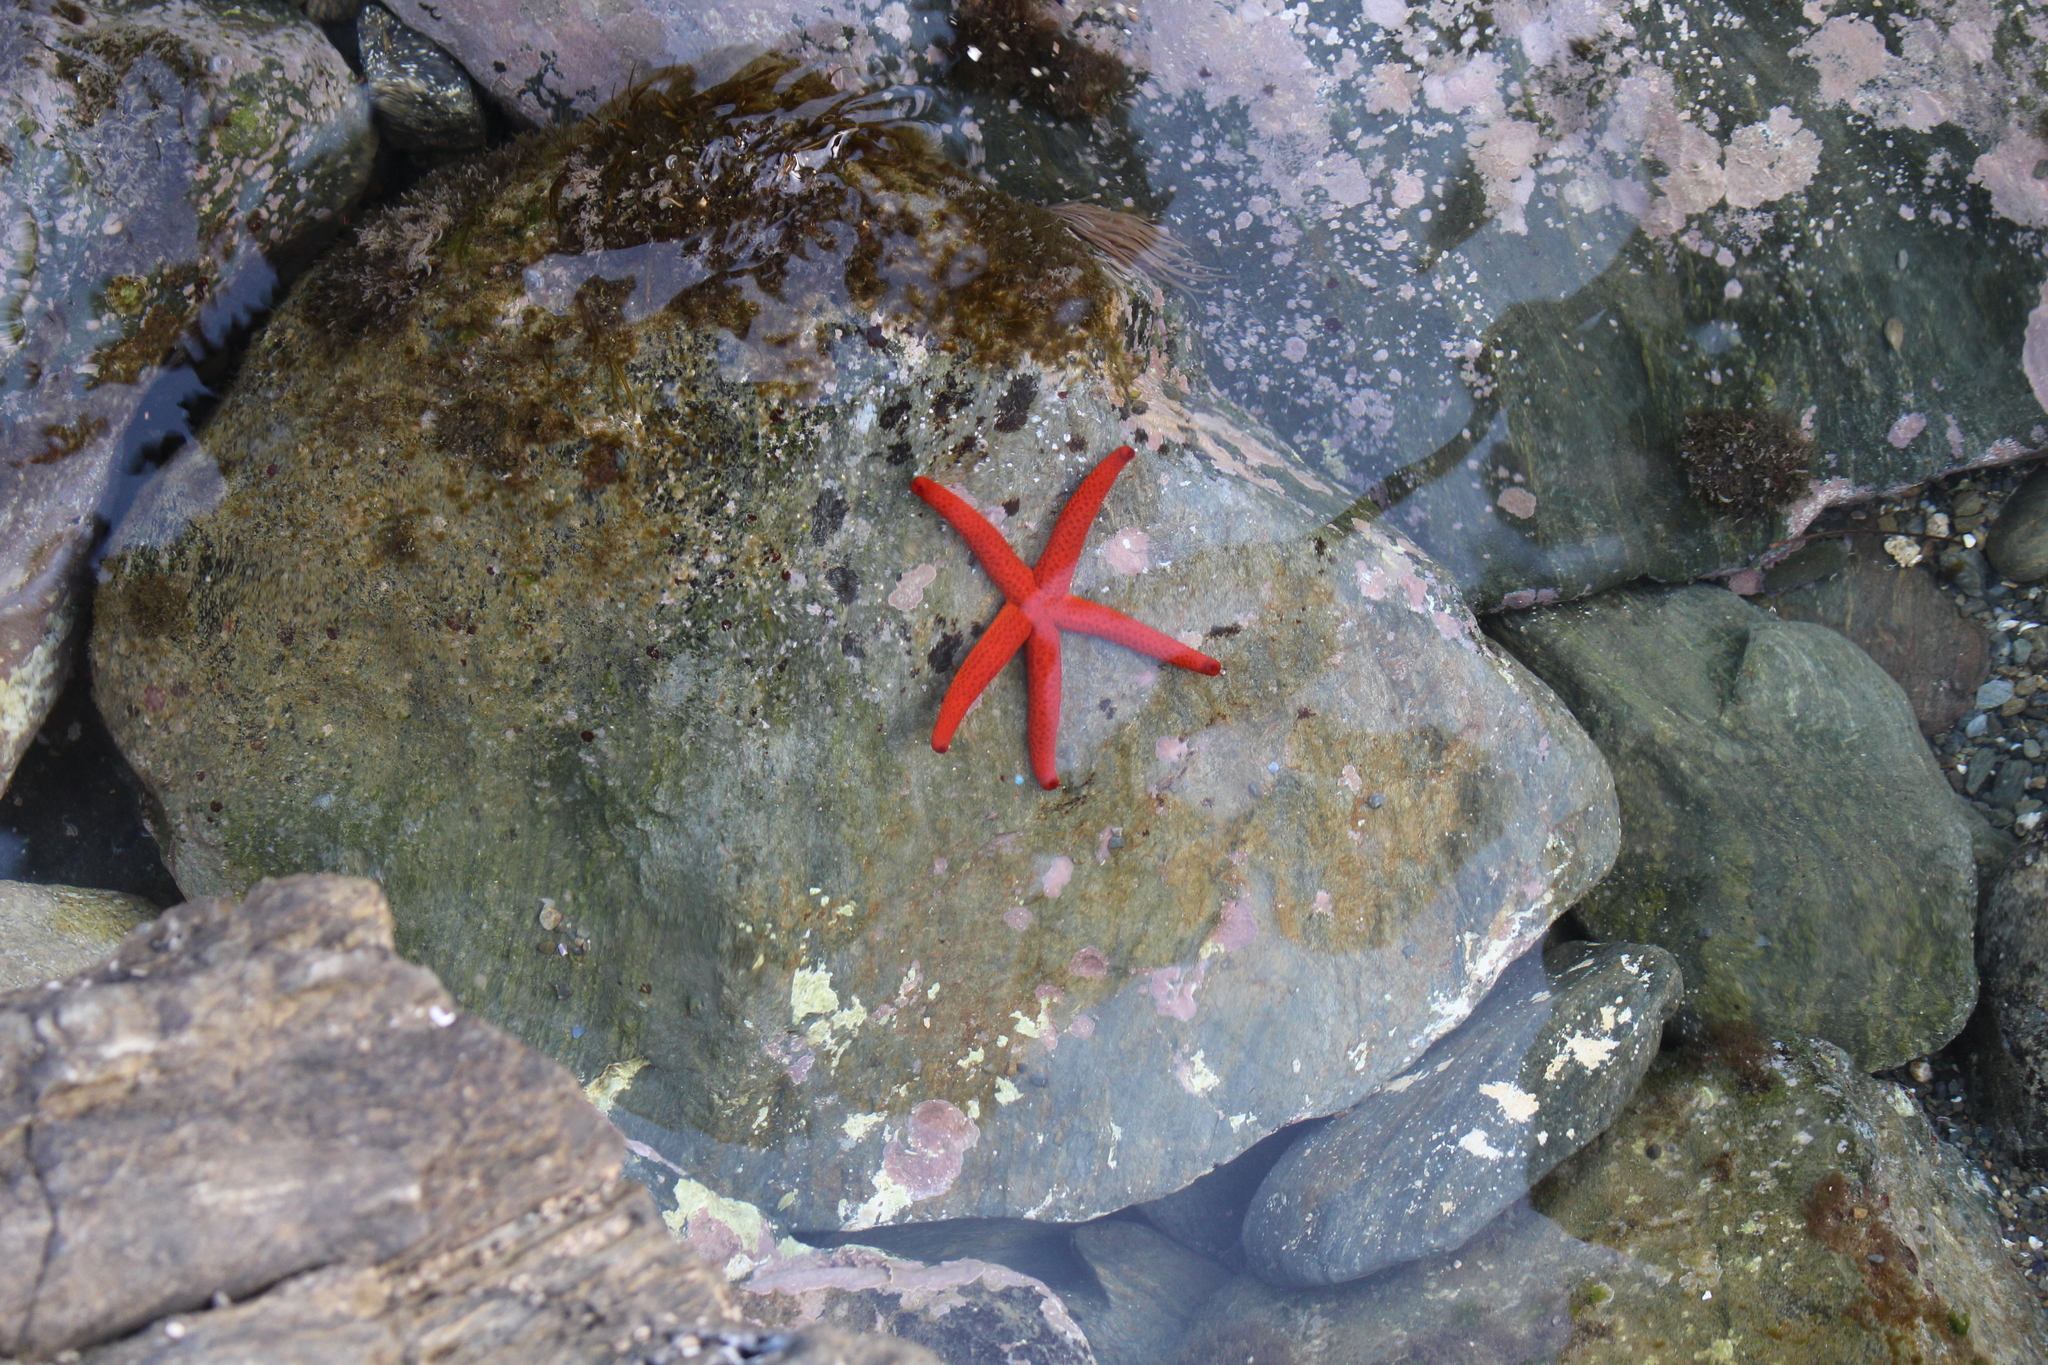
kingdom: Animalia
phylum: Echinodermata
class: Asteroidea
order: Spinulosida
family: Echinasteridae
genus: Echinaster
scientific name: Echinaster sepositus
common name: Red starfish
